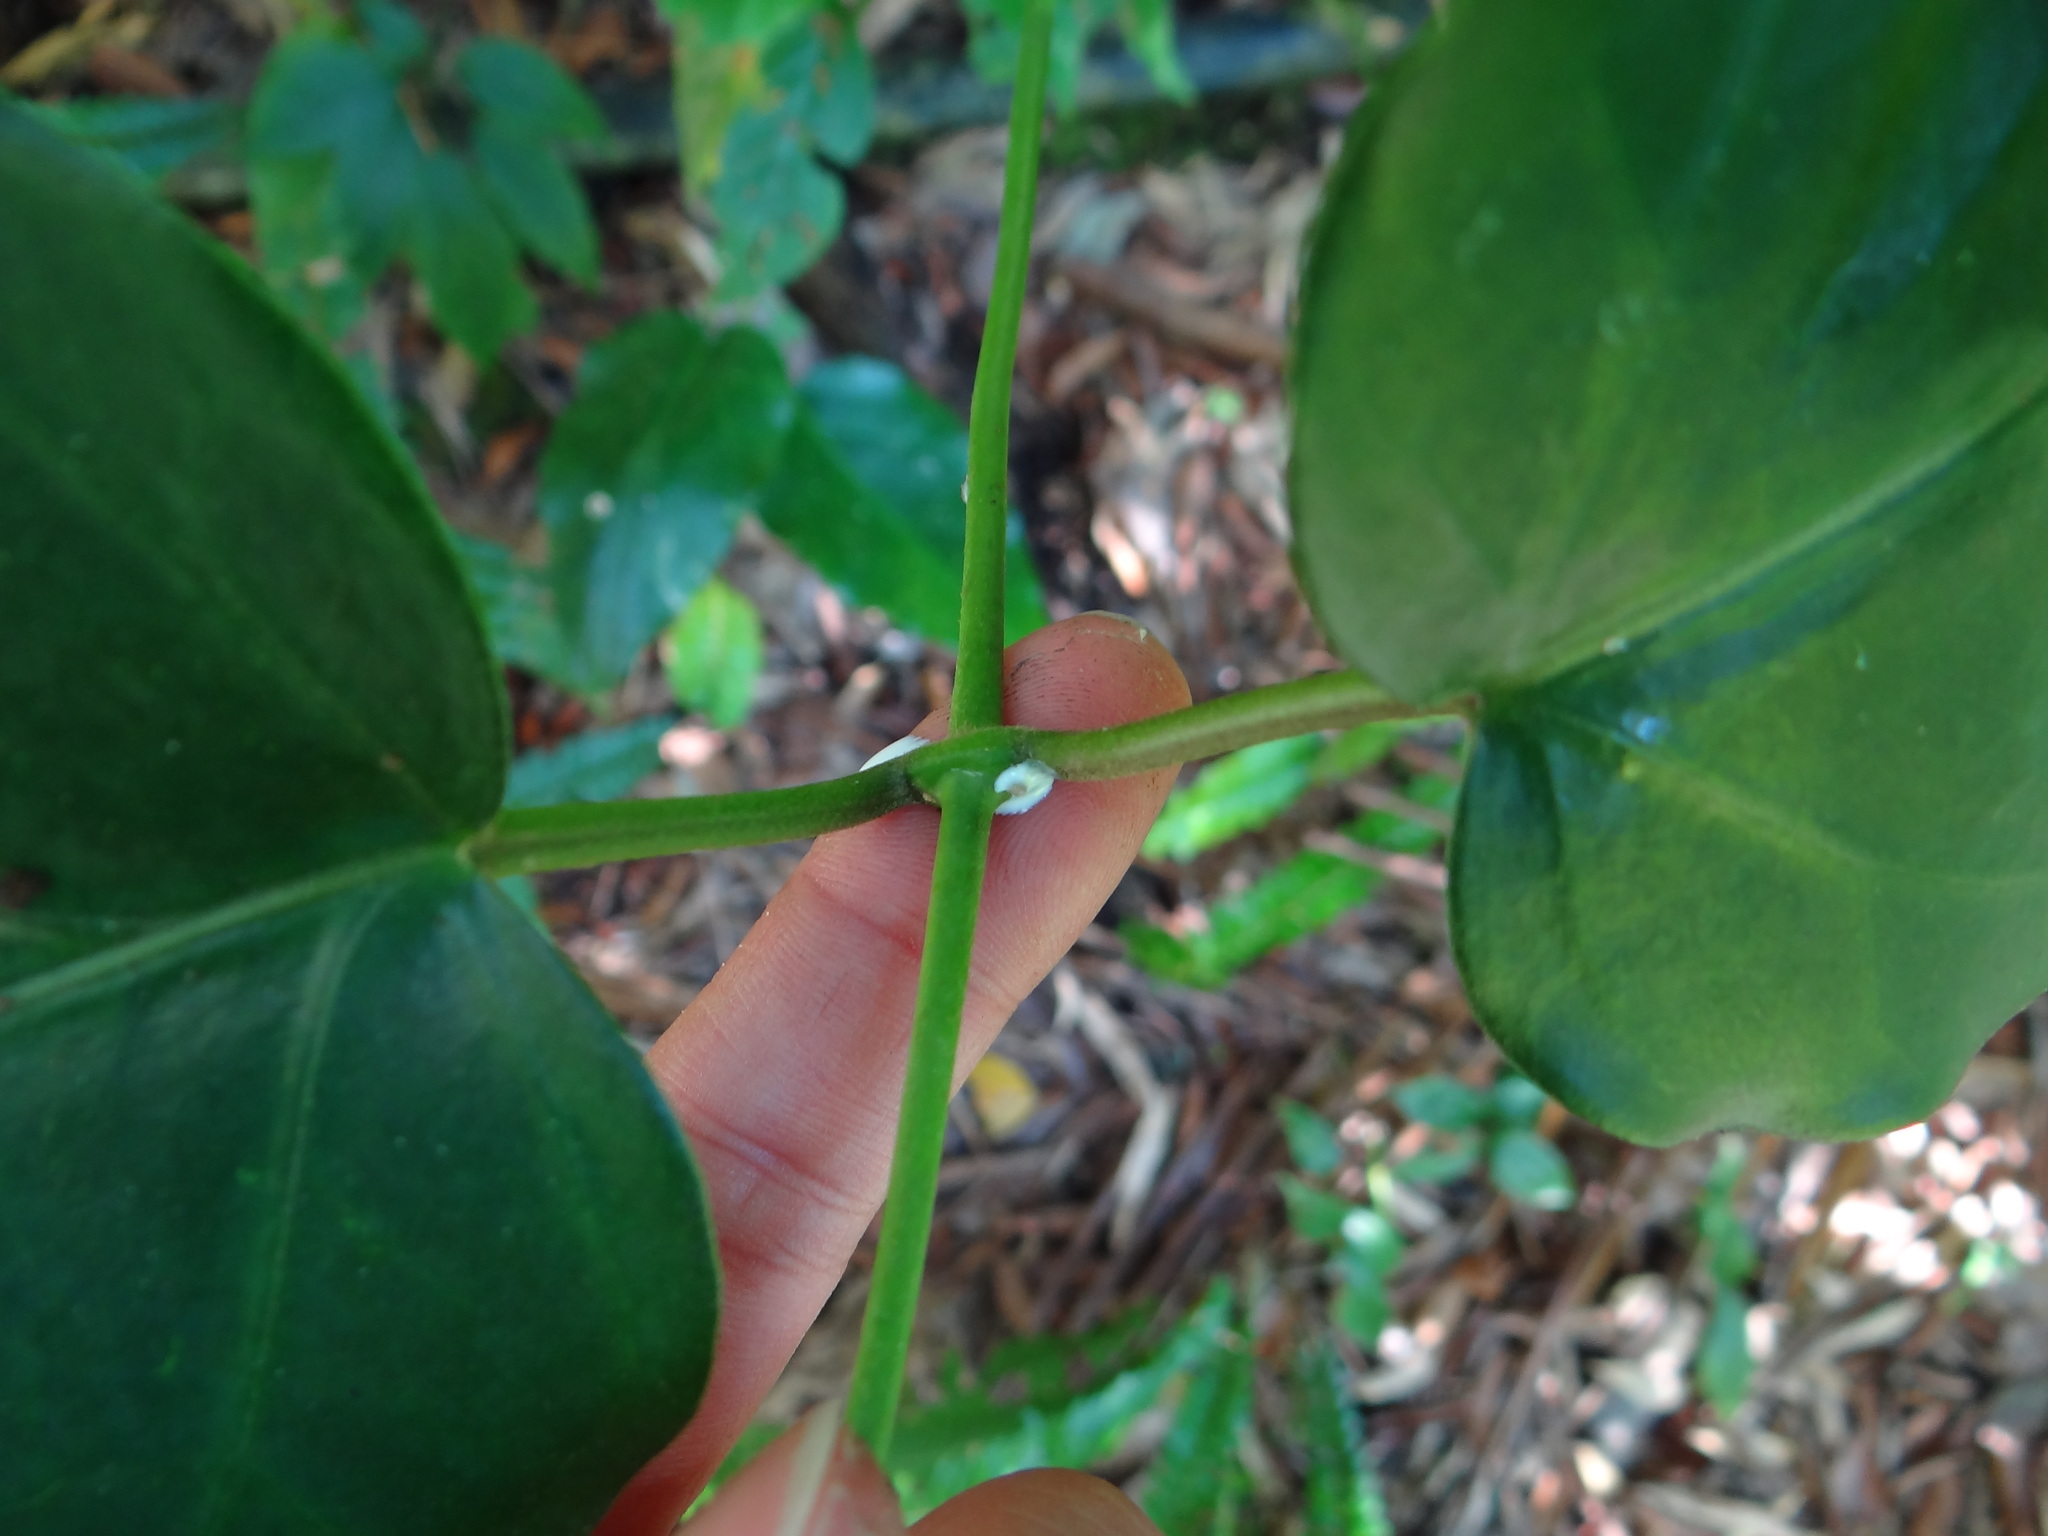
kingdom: Plantae
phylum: Tracheophyta
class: Magnoliopsida
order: Gentianales
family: Apocynaceae
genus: Sinomarsdenia
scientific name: Sinomarsdenia formosana
